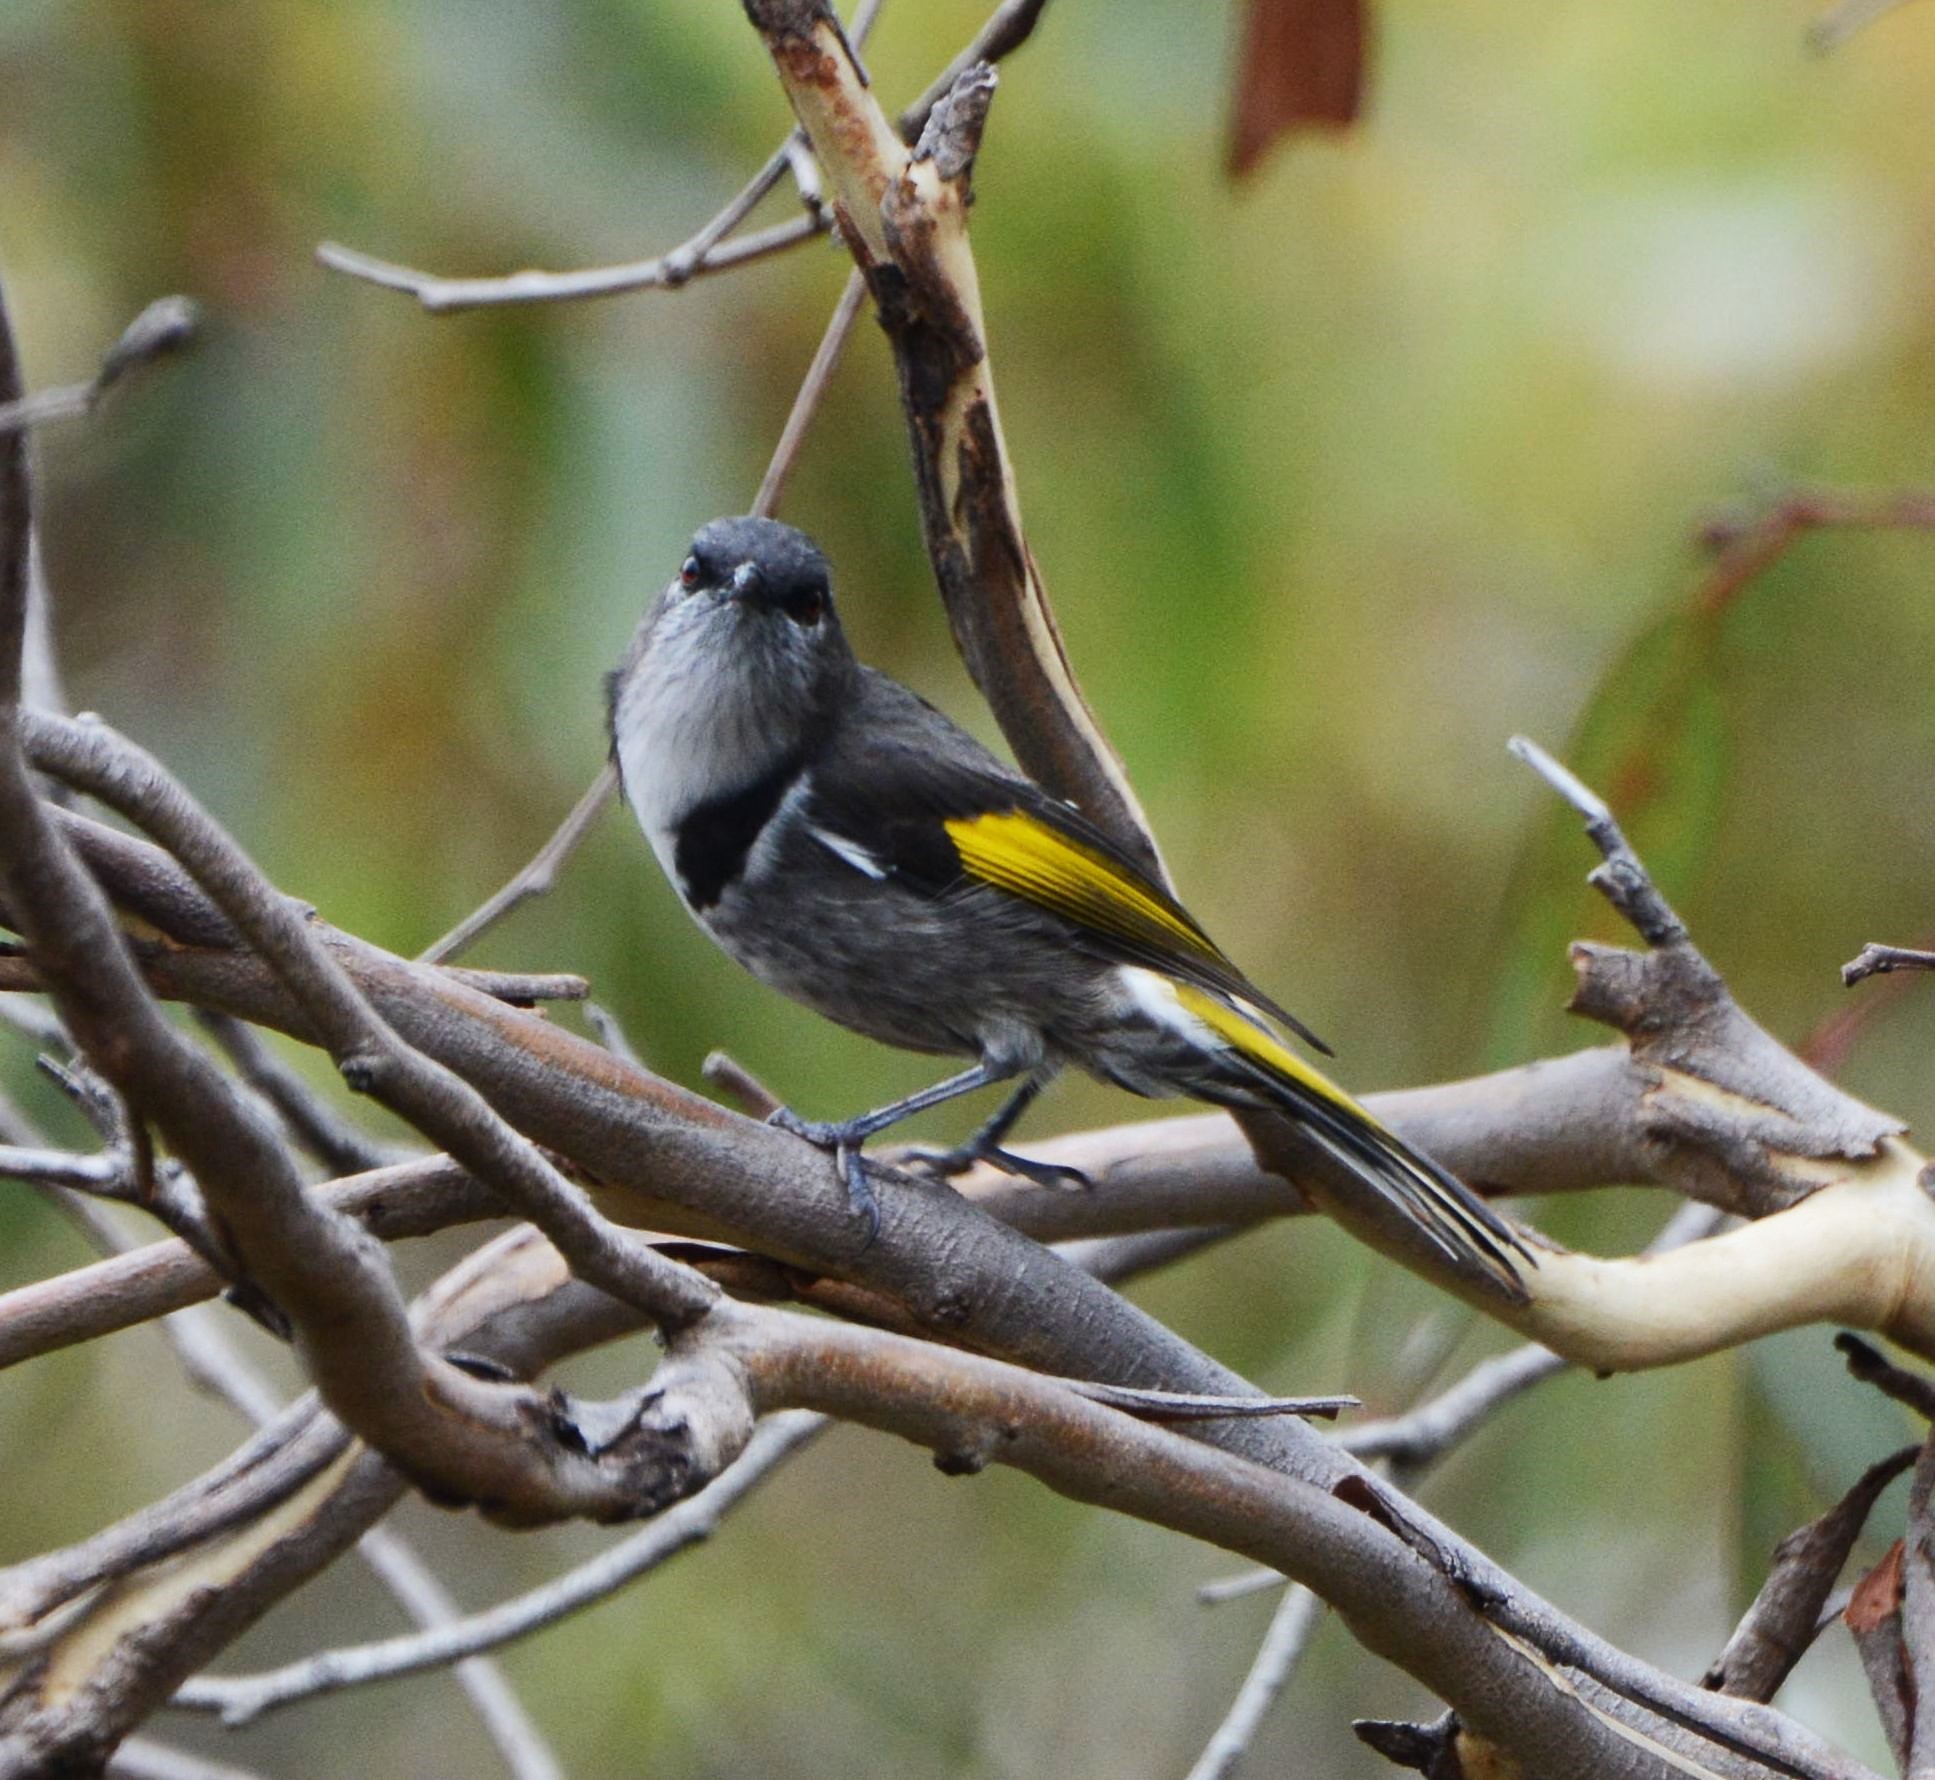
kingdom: Animalia
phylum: Chordata
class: Aves
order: Passeriformes
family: Meliphagidae
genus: Phylidonyris
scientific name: Phylidonyris pyrrhopterus
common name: Crescent honeyeater
